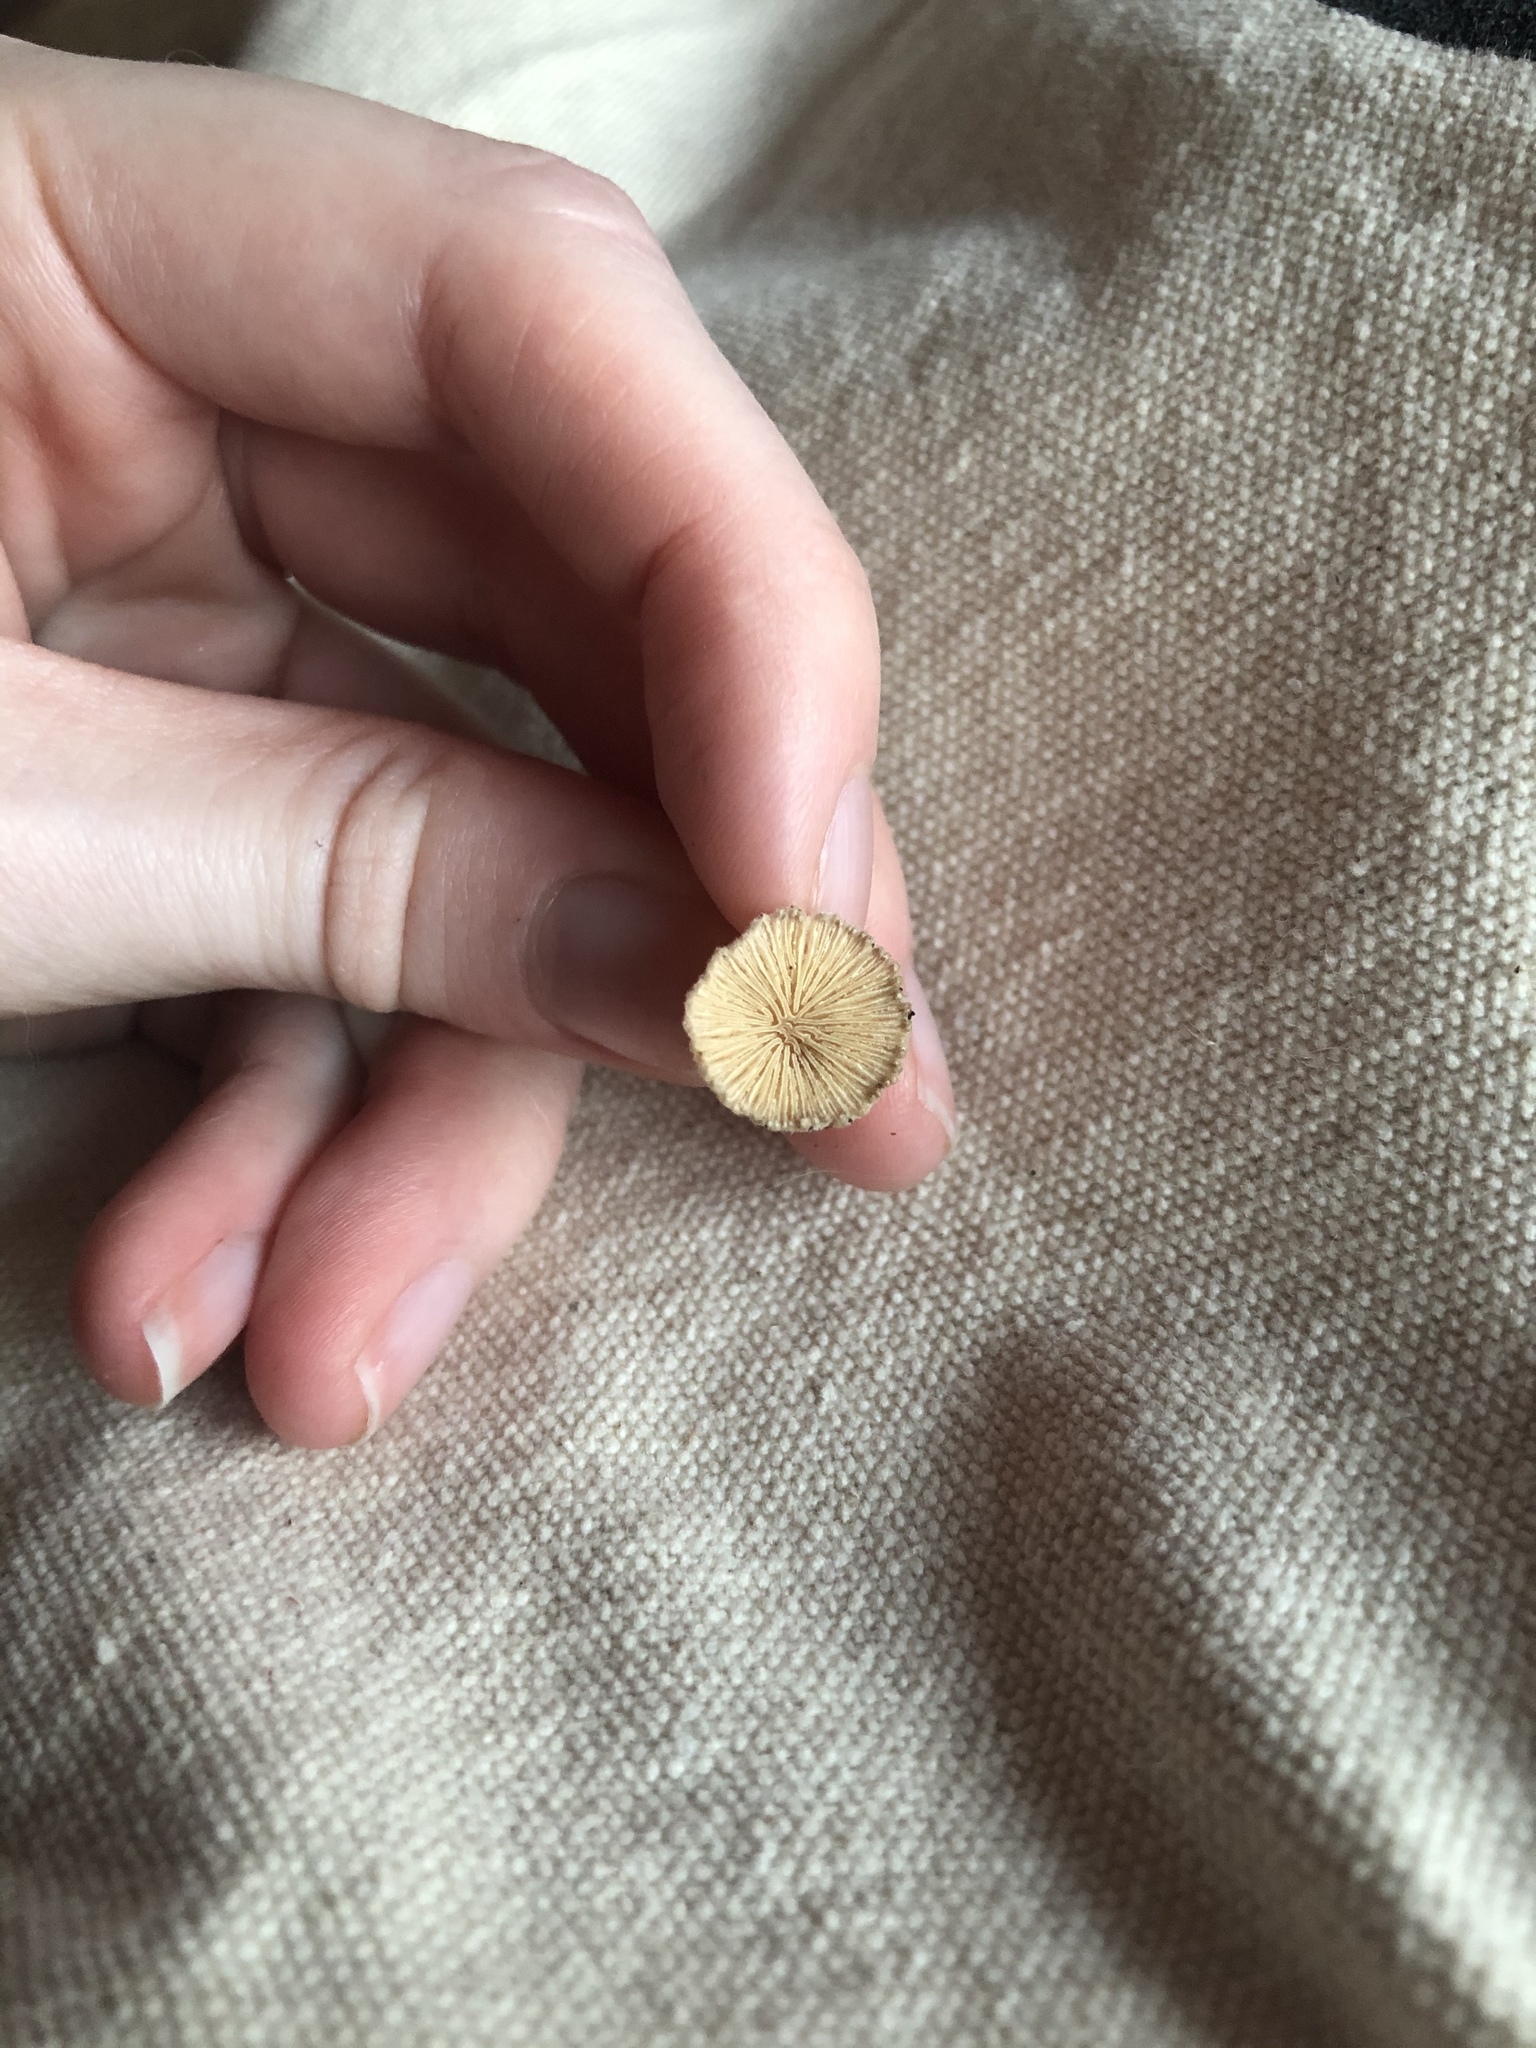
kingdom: Fungi
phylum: Basidiomycota
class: Agaricomycetes
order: Agaricales
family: Schizophyllaceae
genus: Schizophyllum
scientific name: Schizophyllum commune
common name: Common porecrust
